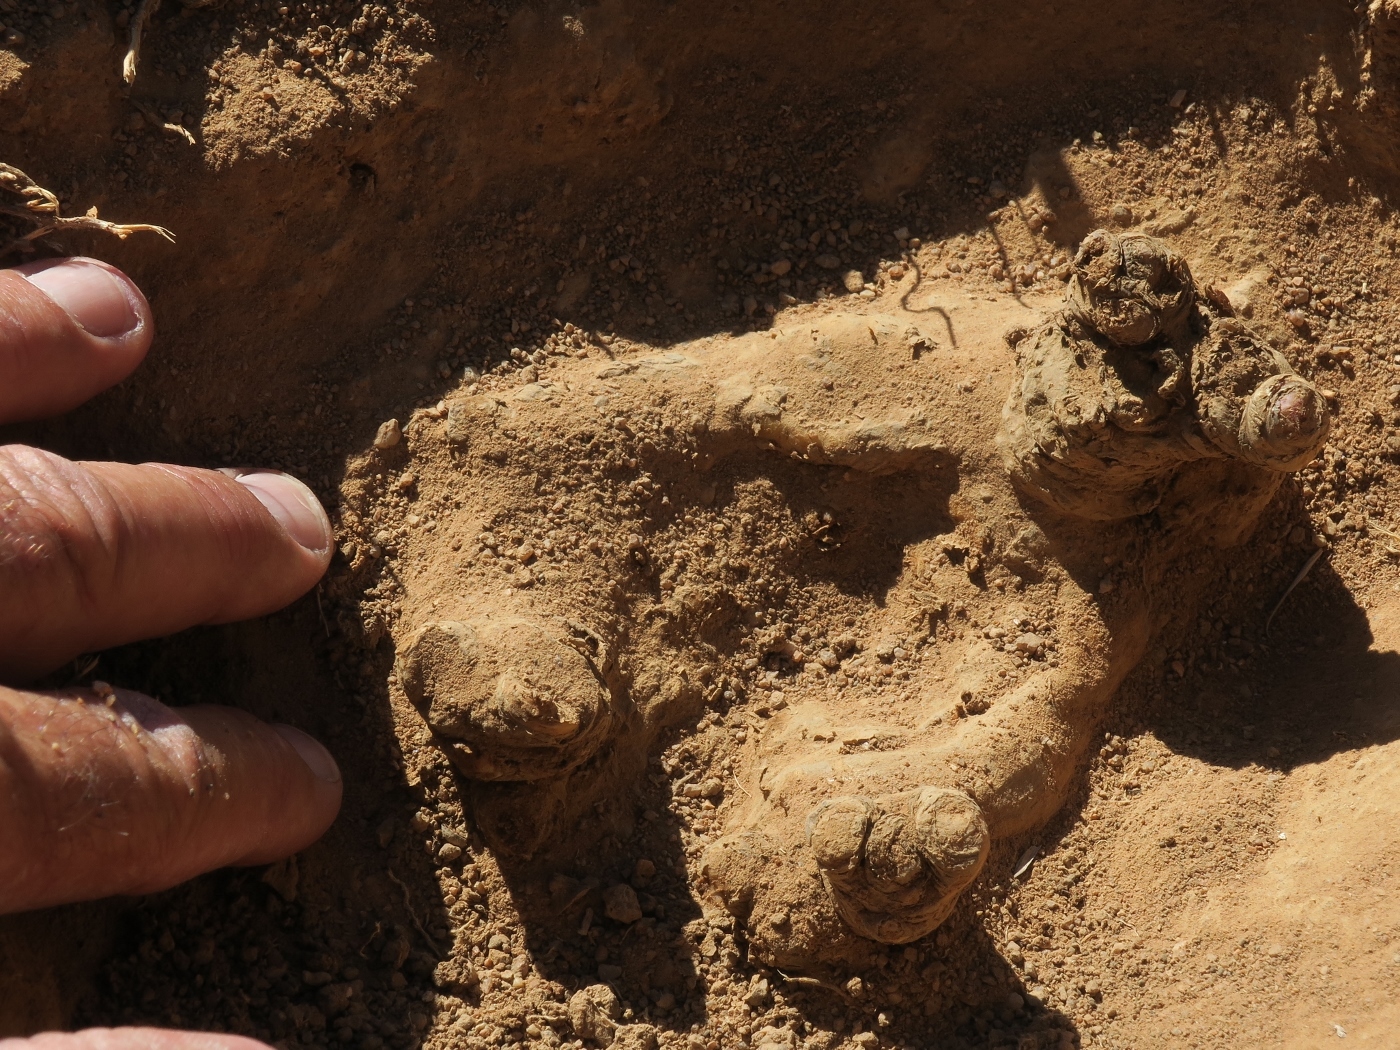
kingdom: Plantae
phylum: Tracheophyta
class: Magnoliopsida
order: Apiales
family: Apiaceae
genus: Cynorhiza
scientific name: Cynorhiza typica
